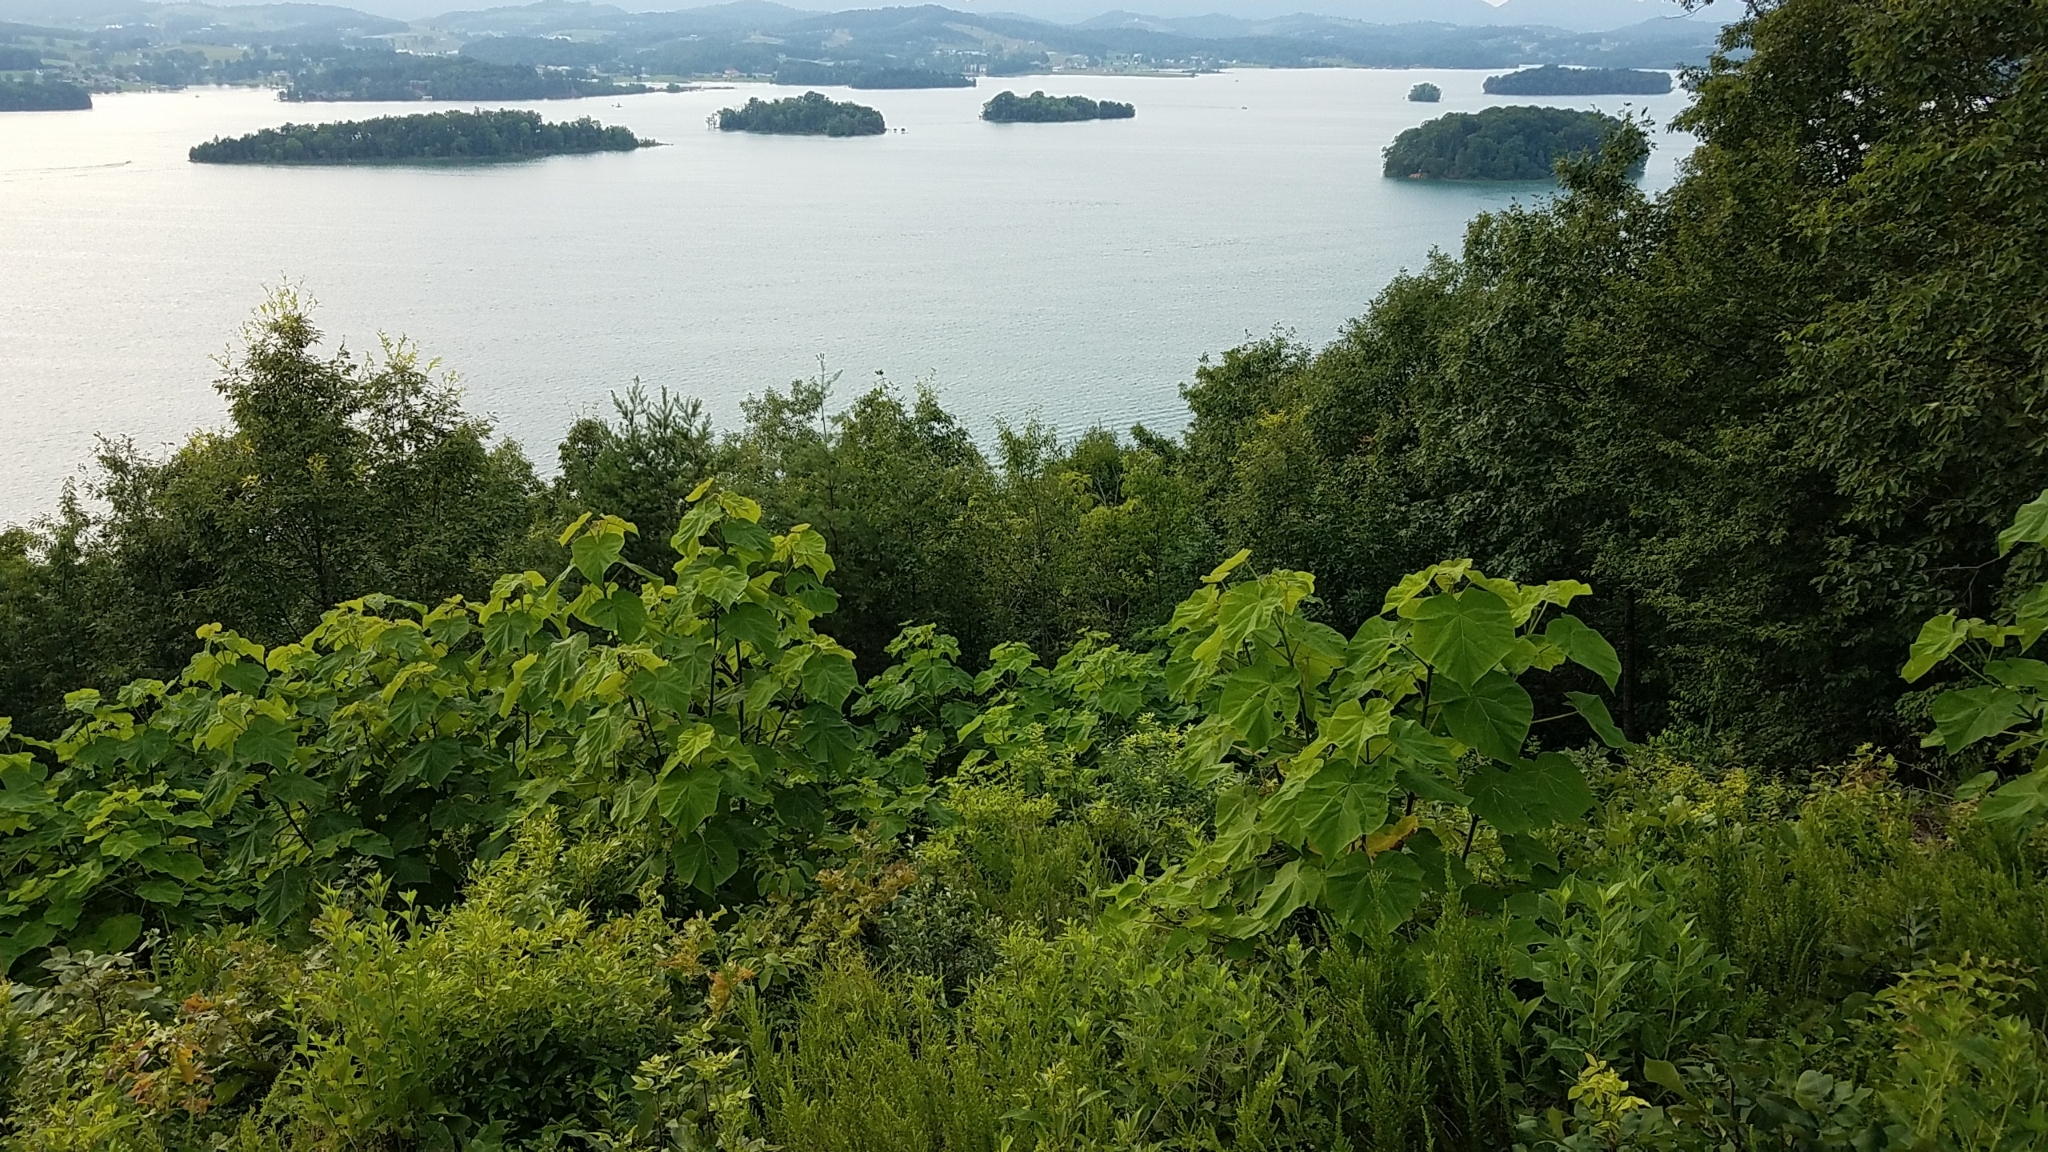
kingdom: Plantae
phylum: Tracheophyta
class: Magnoliopsida
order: Lamiales
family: Paulowniaceae
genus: Paulownia
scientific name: Paulownia tomentosa
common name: Foxglove-tree
